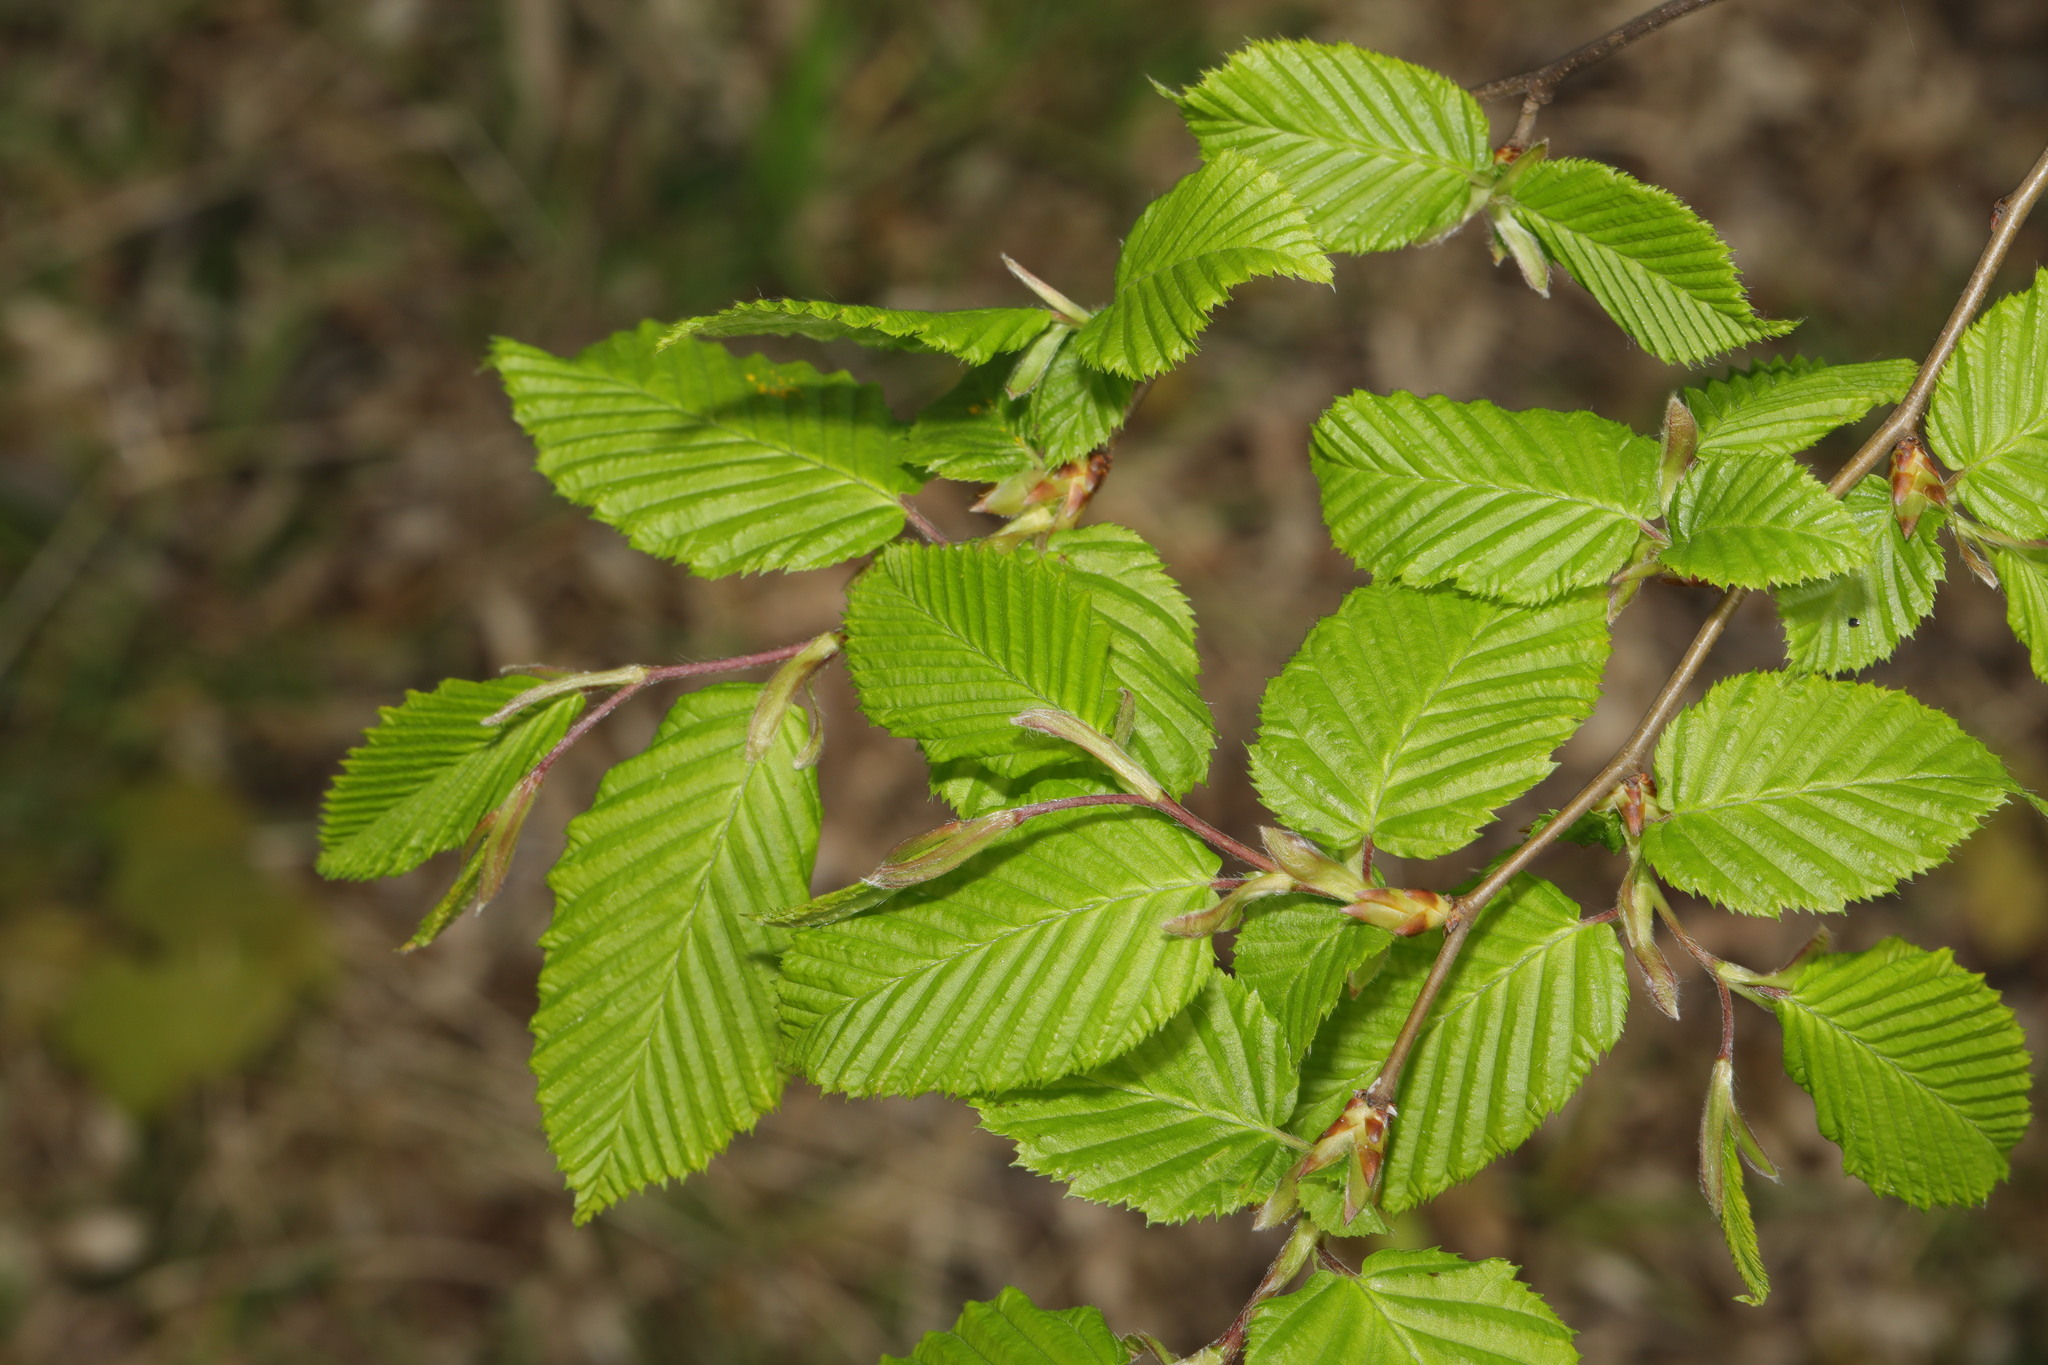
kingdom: Plantae
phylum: Tracheophyta
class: Magnoliopsida
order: Fagales
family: Betulaceae
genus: Carpinus
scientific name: Carpinus betulus
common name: Hornbeam
